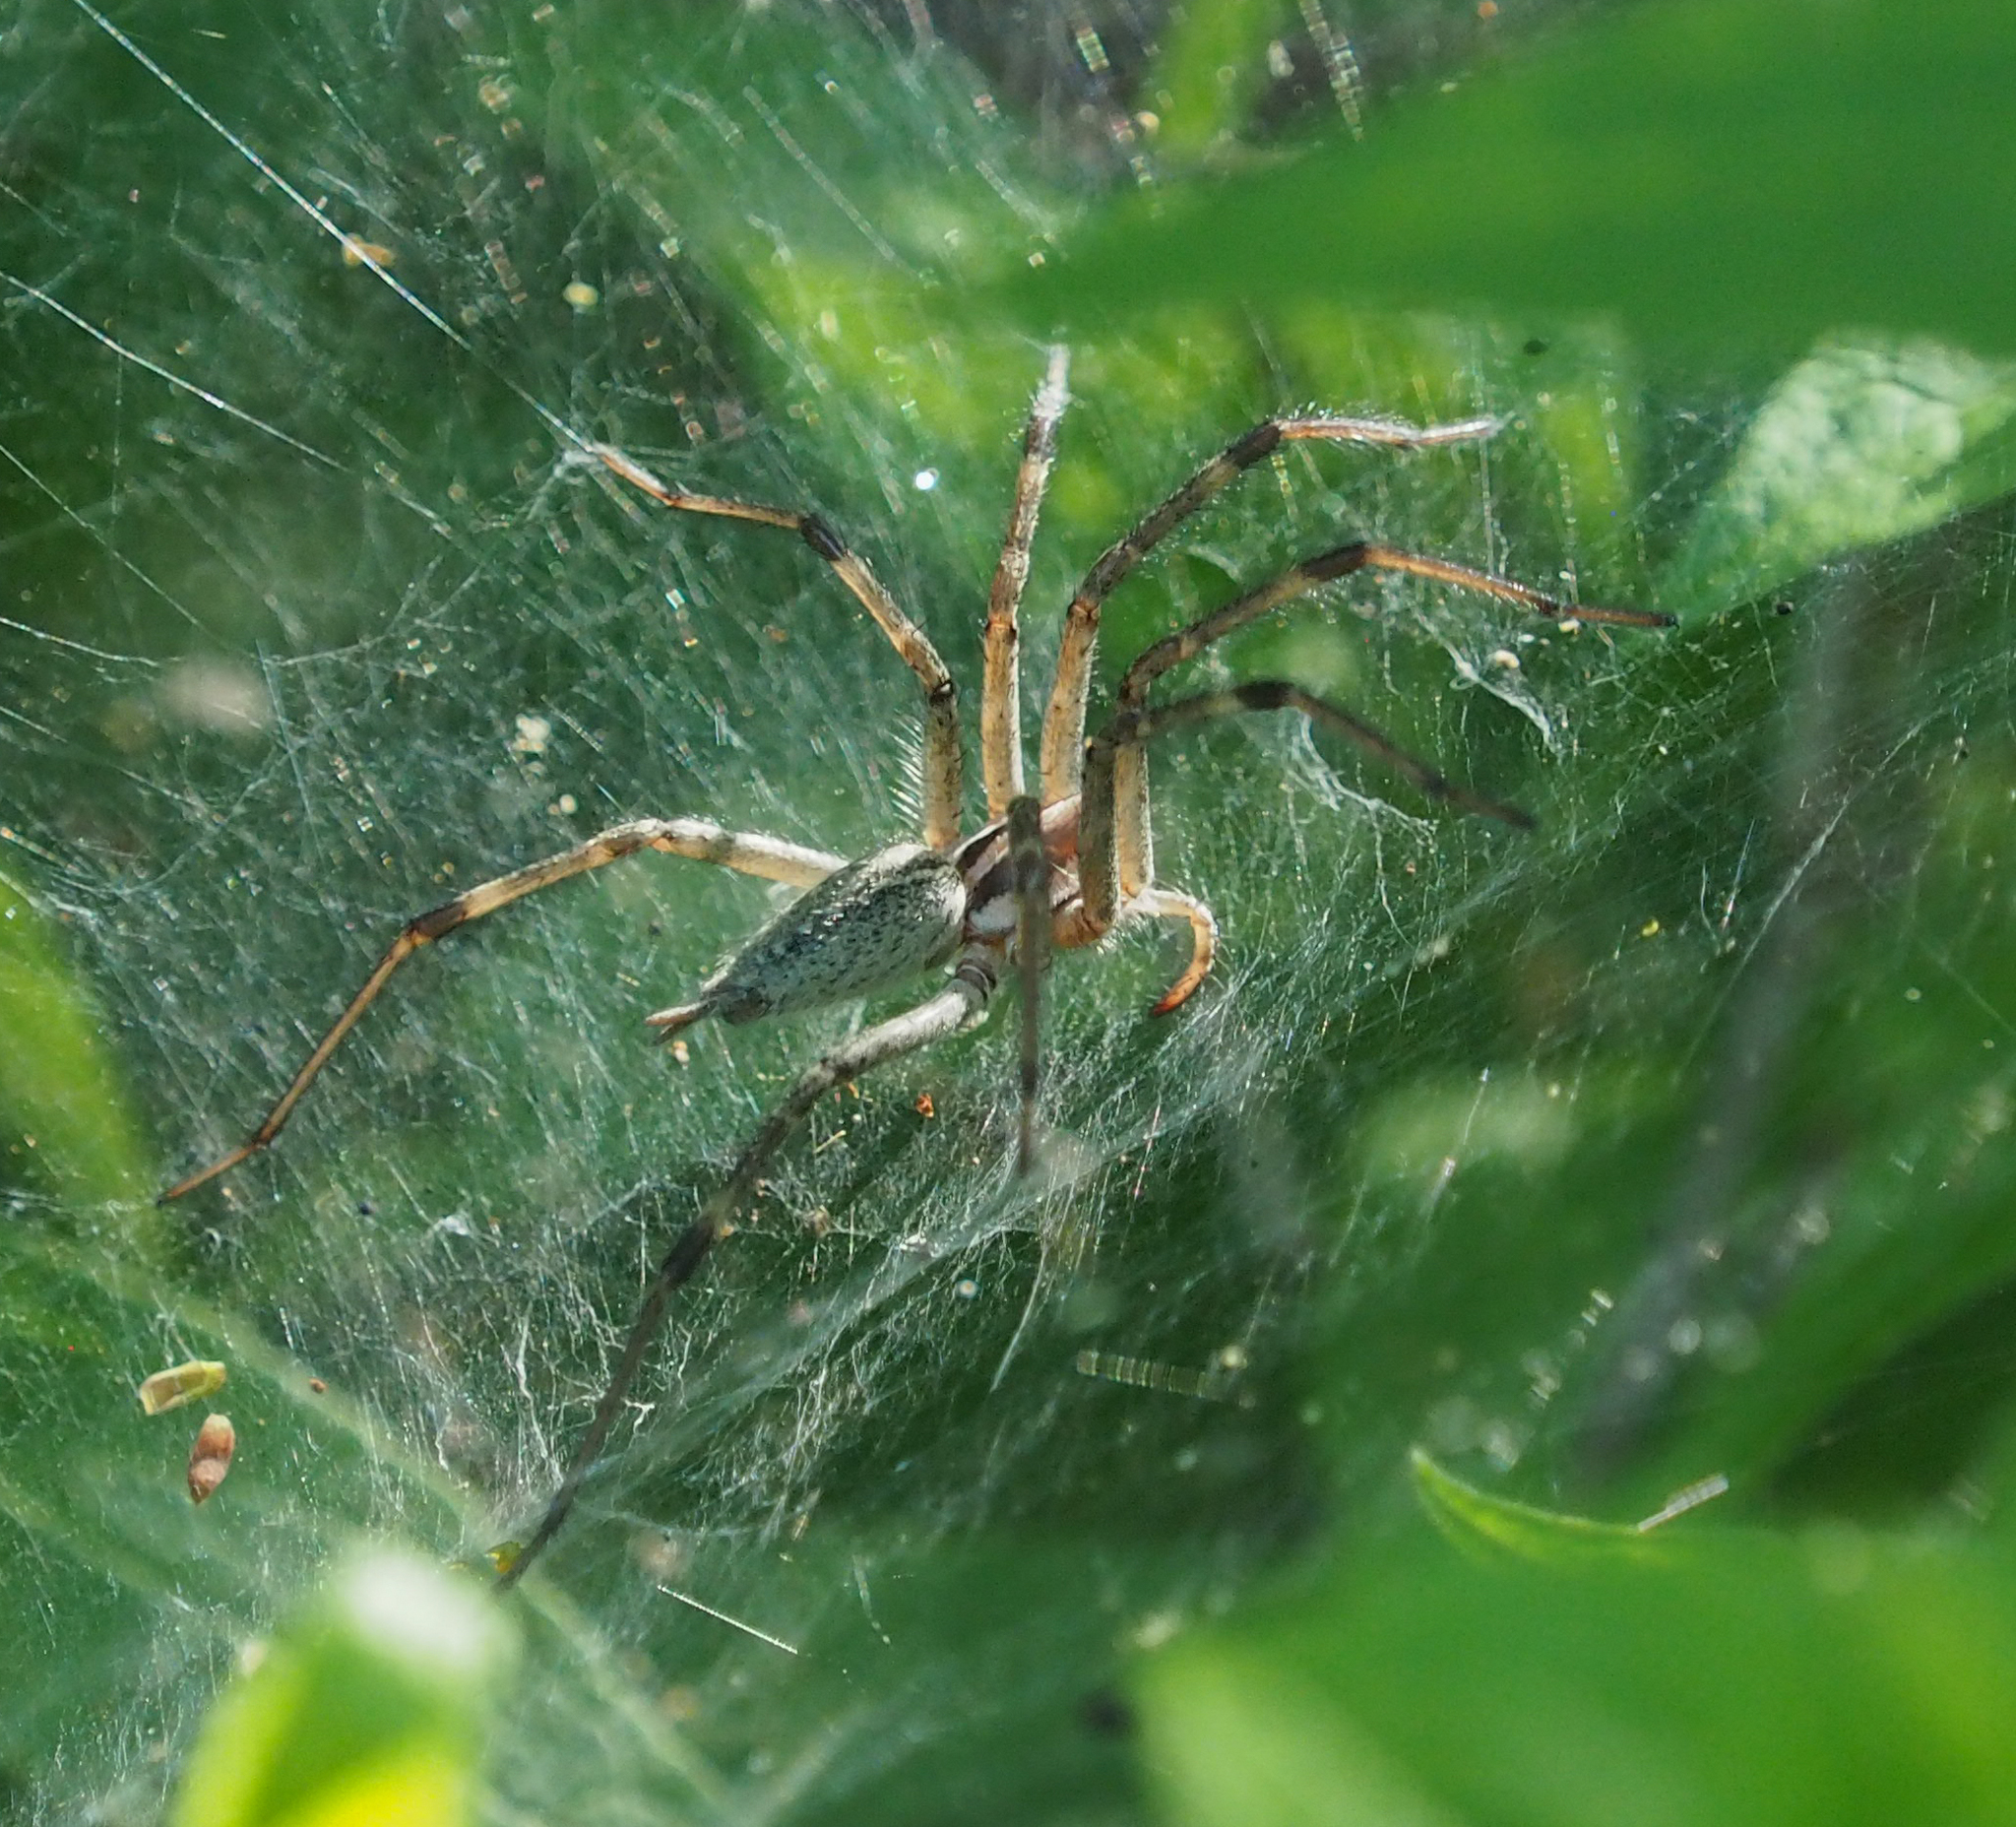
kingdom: Animalia
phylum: Arthropoda
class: Arachnida
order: Araneae
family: Agelenidae
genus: Agelenopsis
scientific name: Agelenopsis
